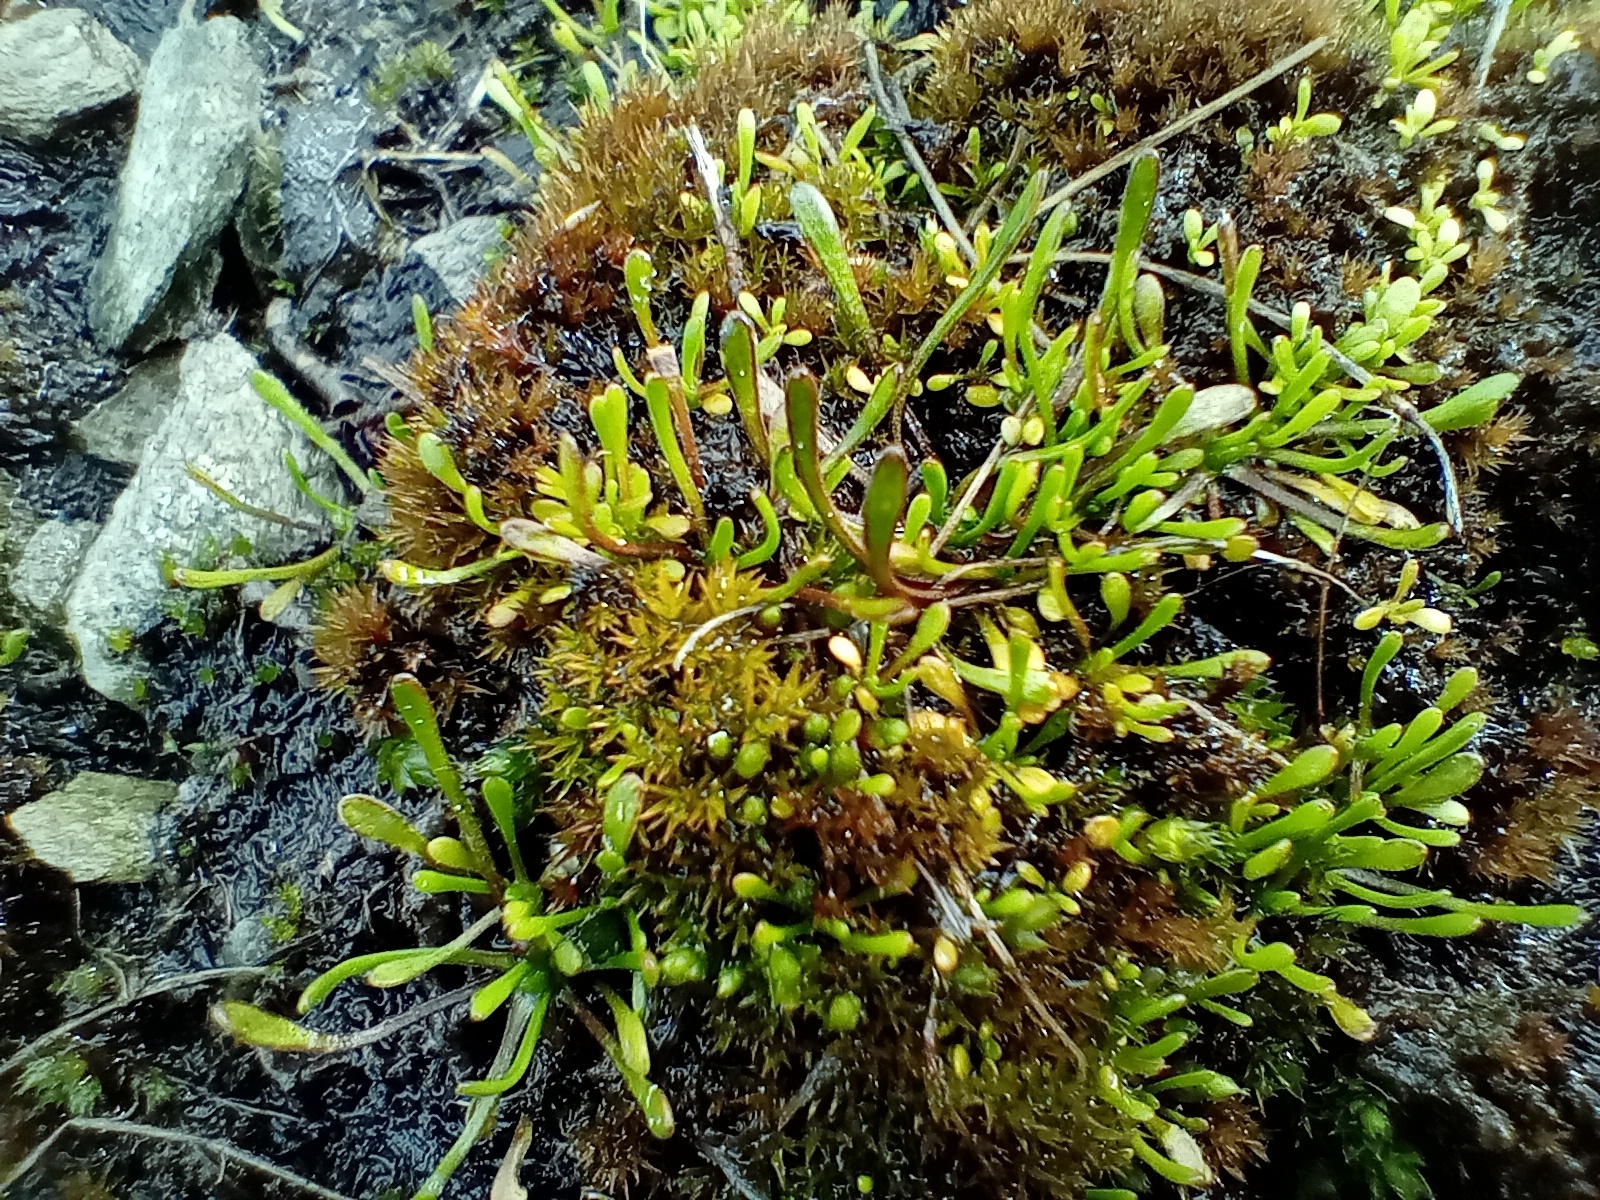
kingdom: Plantae
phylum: Tracheophyta
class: Magnoliopsida
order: Ranunculales
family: Ranunculaceae
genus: Myosurus
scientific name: Myosurus minimus
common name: Mousetail
